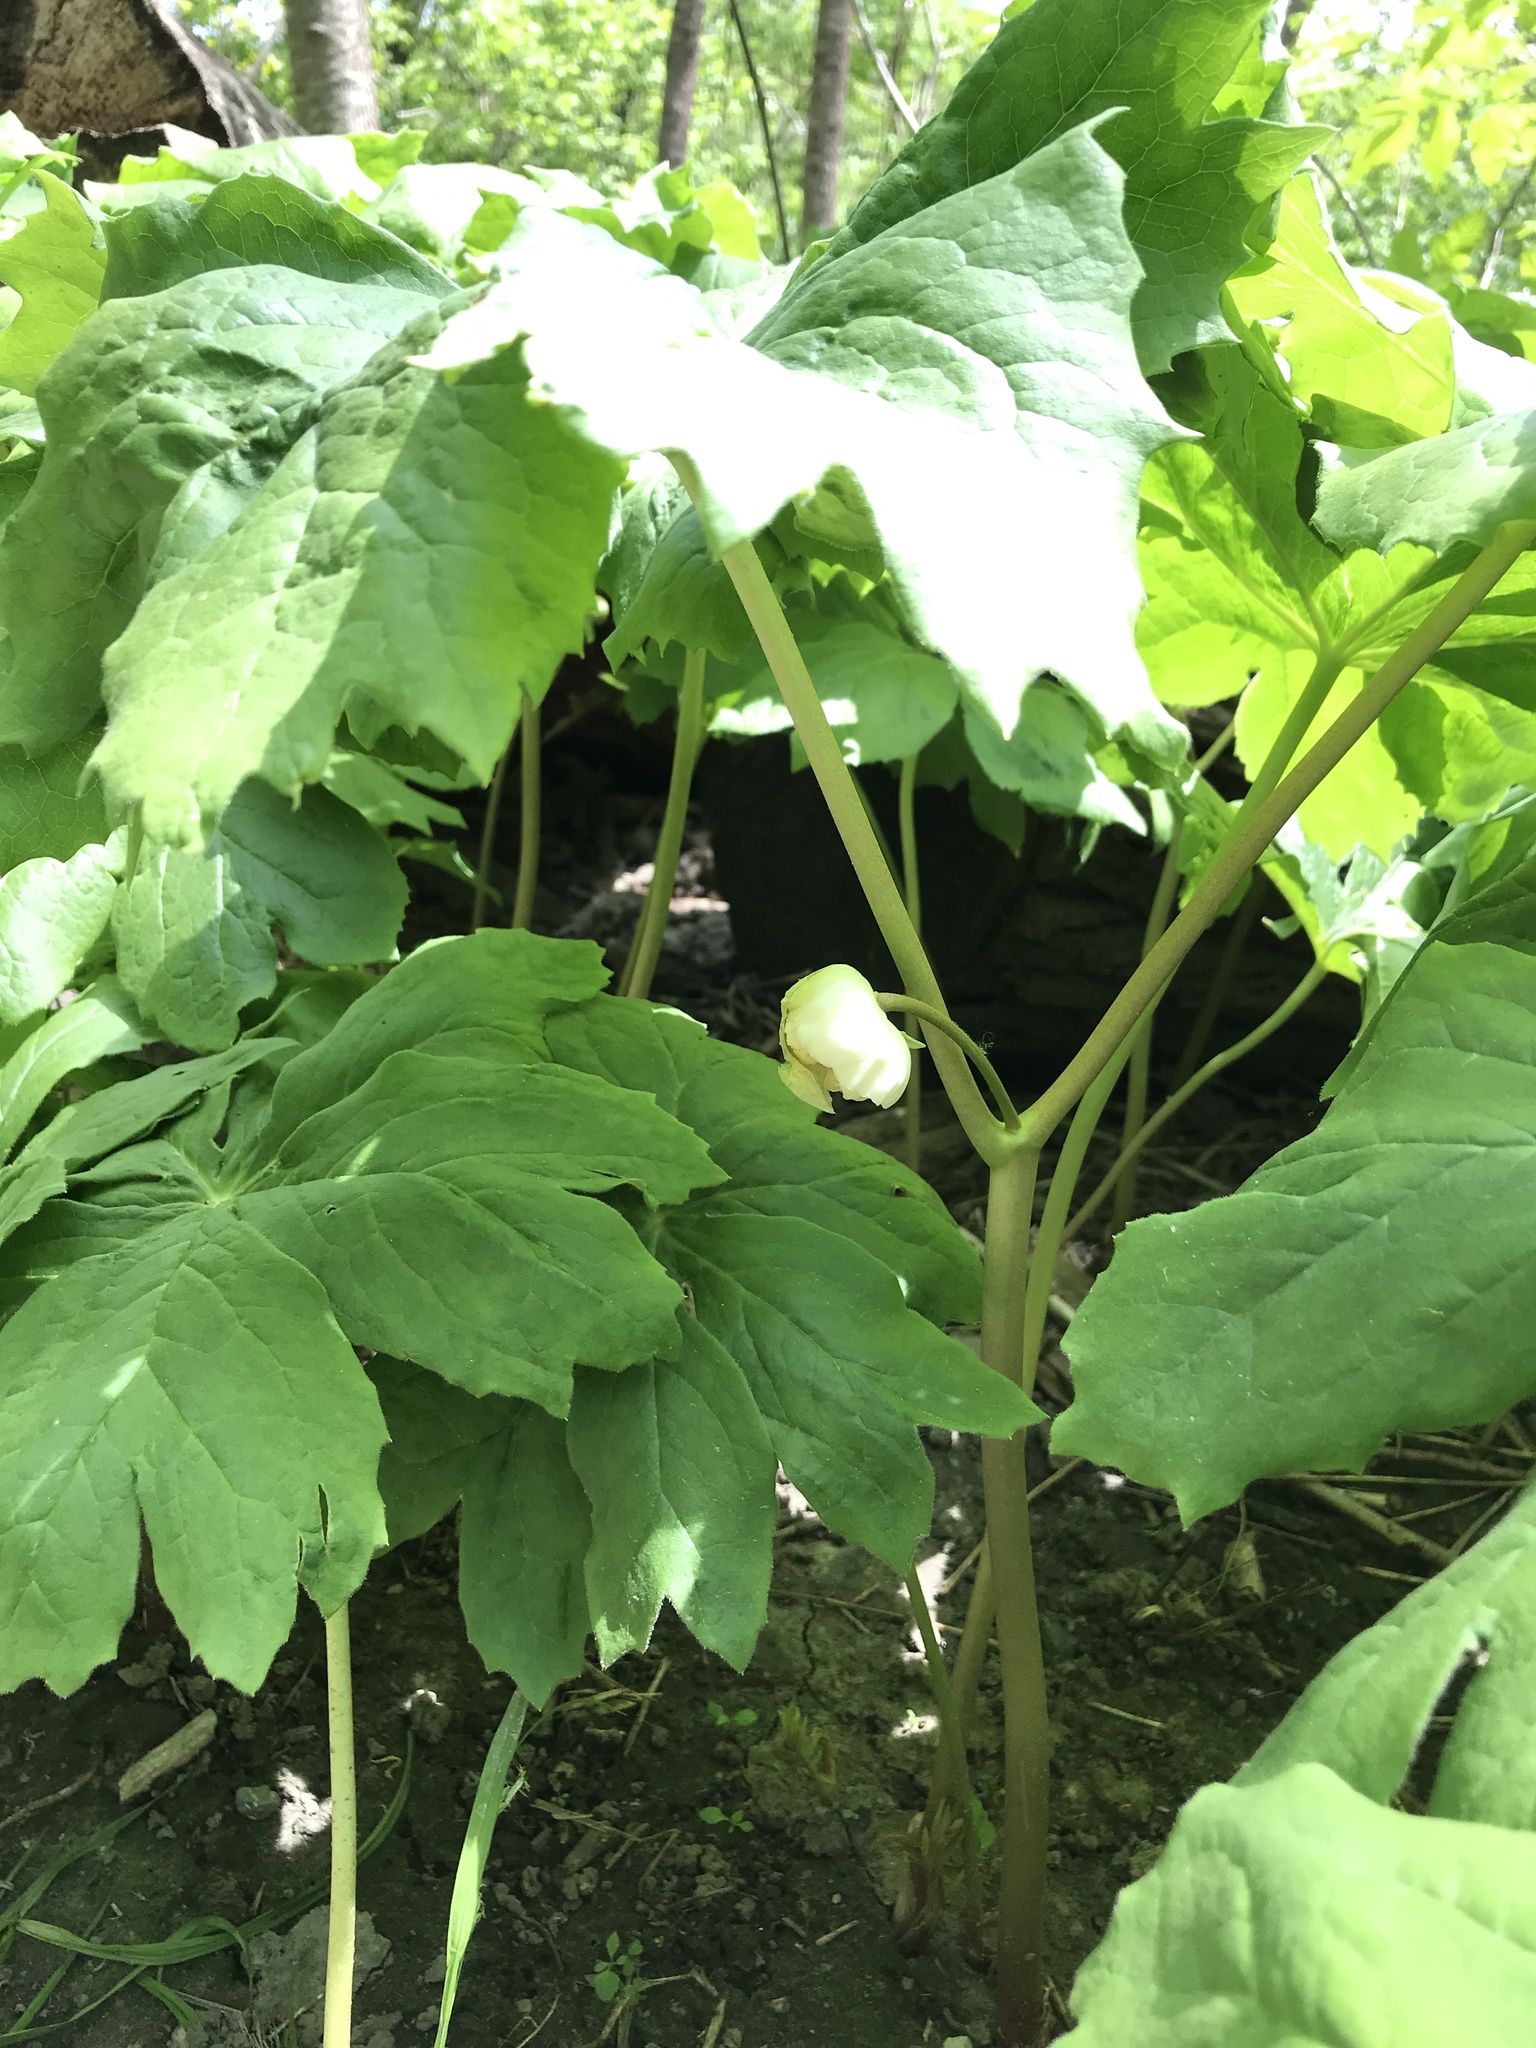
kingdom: Plantae
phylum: Tracheophyta
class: Magnoliopsida
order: Ranunculales
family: Berberidaceae
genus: Podophyllum
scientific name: Podophyllum peltatum
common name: Wild mandrake
